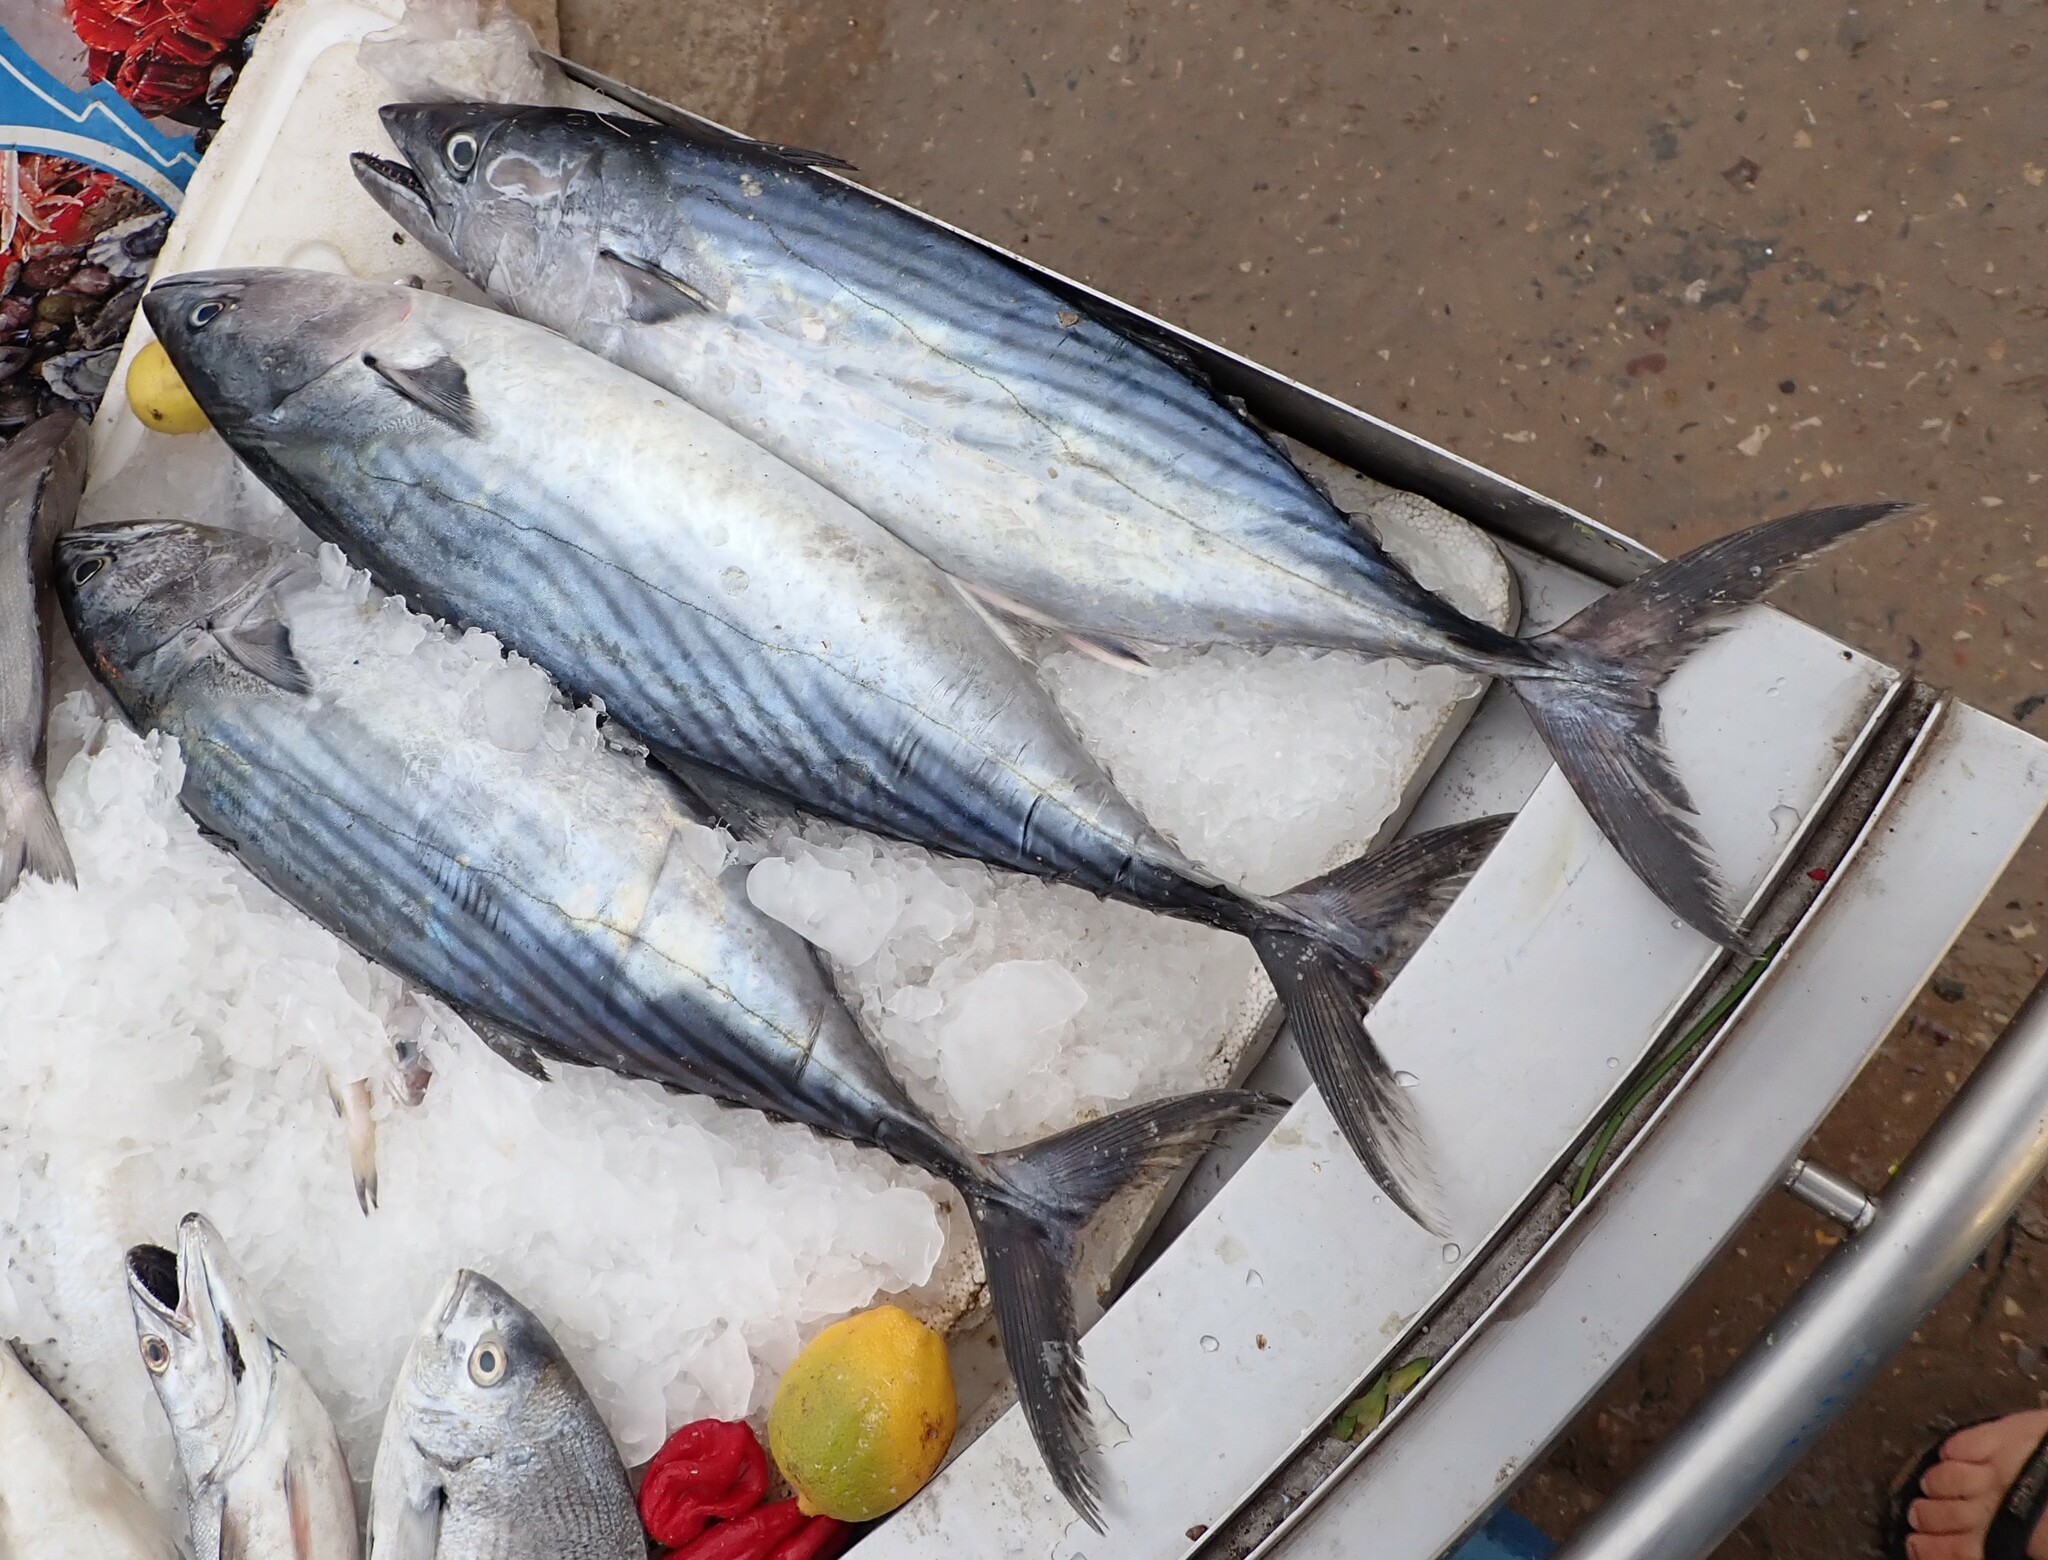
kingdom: Animalia
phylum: Chordata
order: Perciformes
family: Scombridae
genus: Sarda
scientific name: Sarda sarda
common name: Atlantic bonito
